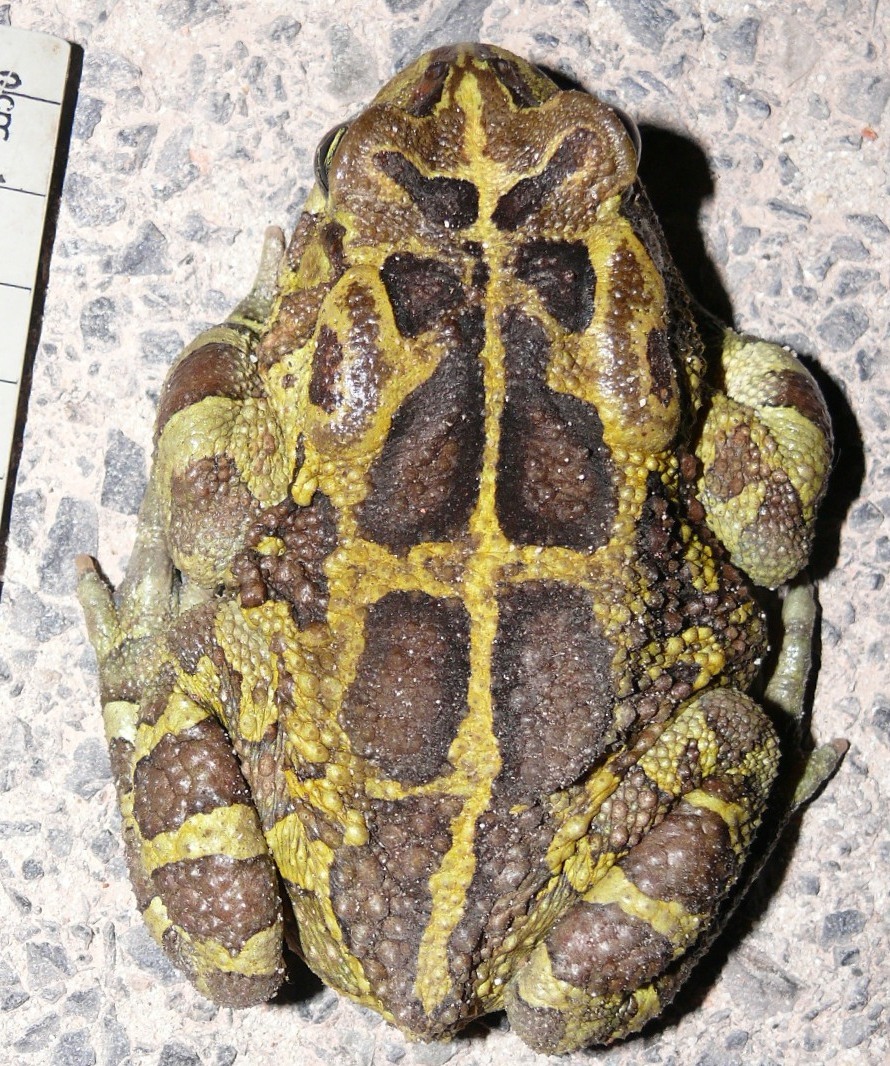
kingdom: Animalia
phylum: Chordata
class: Amphibia
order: Anura
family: Bufonidae
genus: Sclerophrys
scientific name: Sclerophrys pantherina
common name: Panther toad
